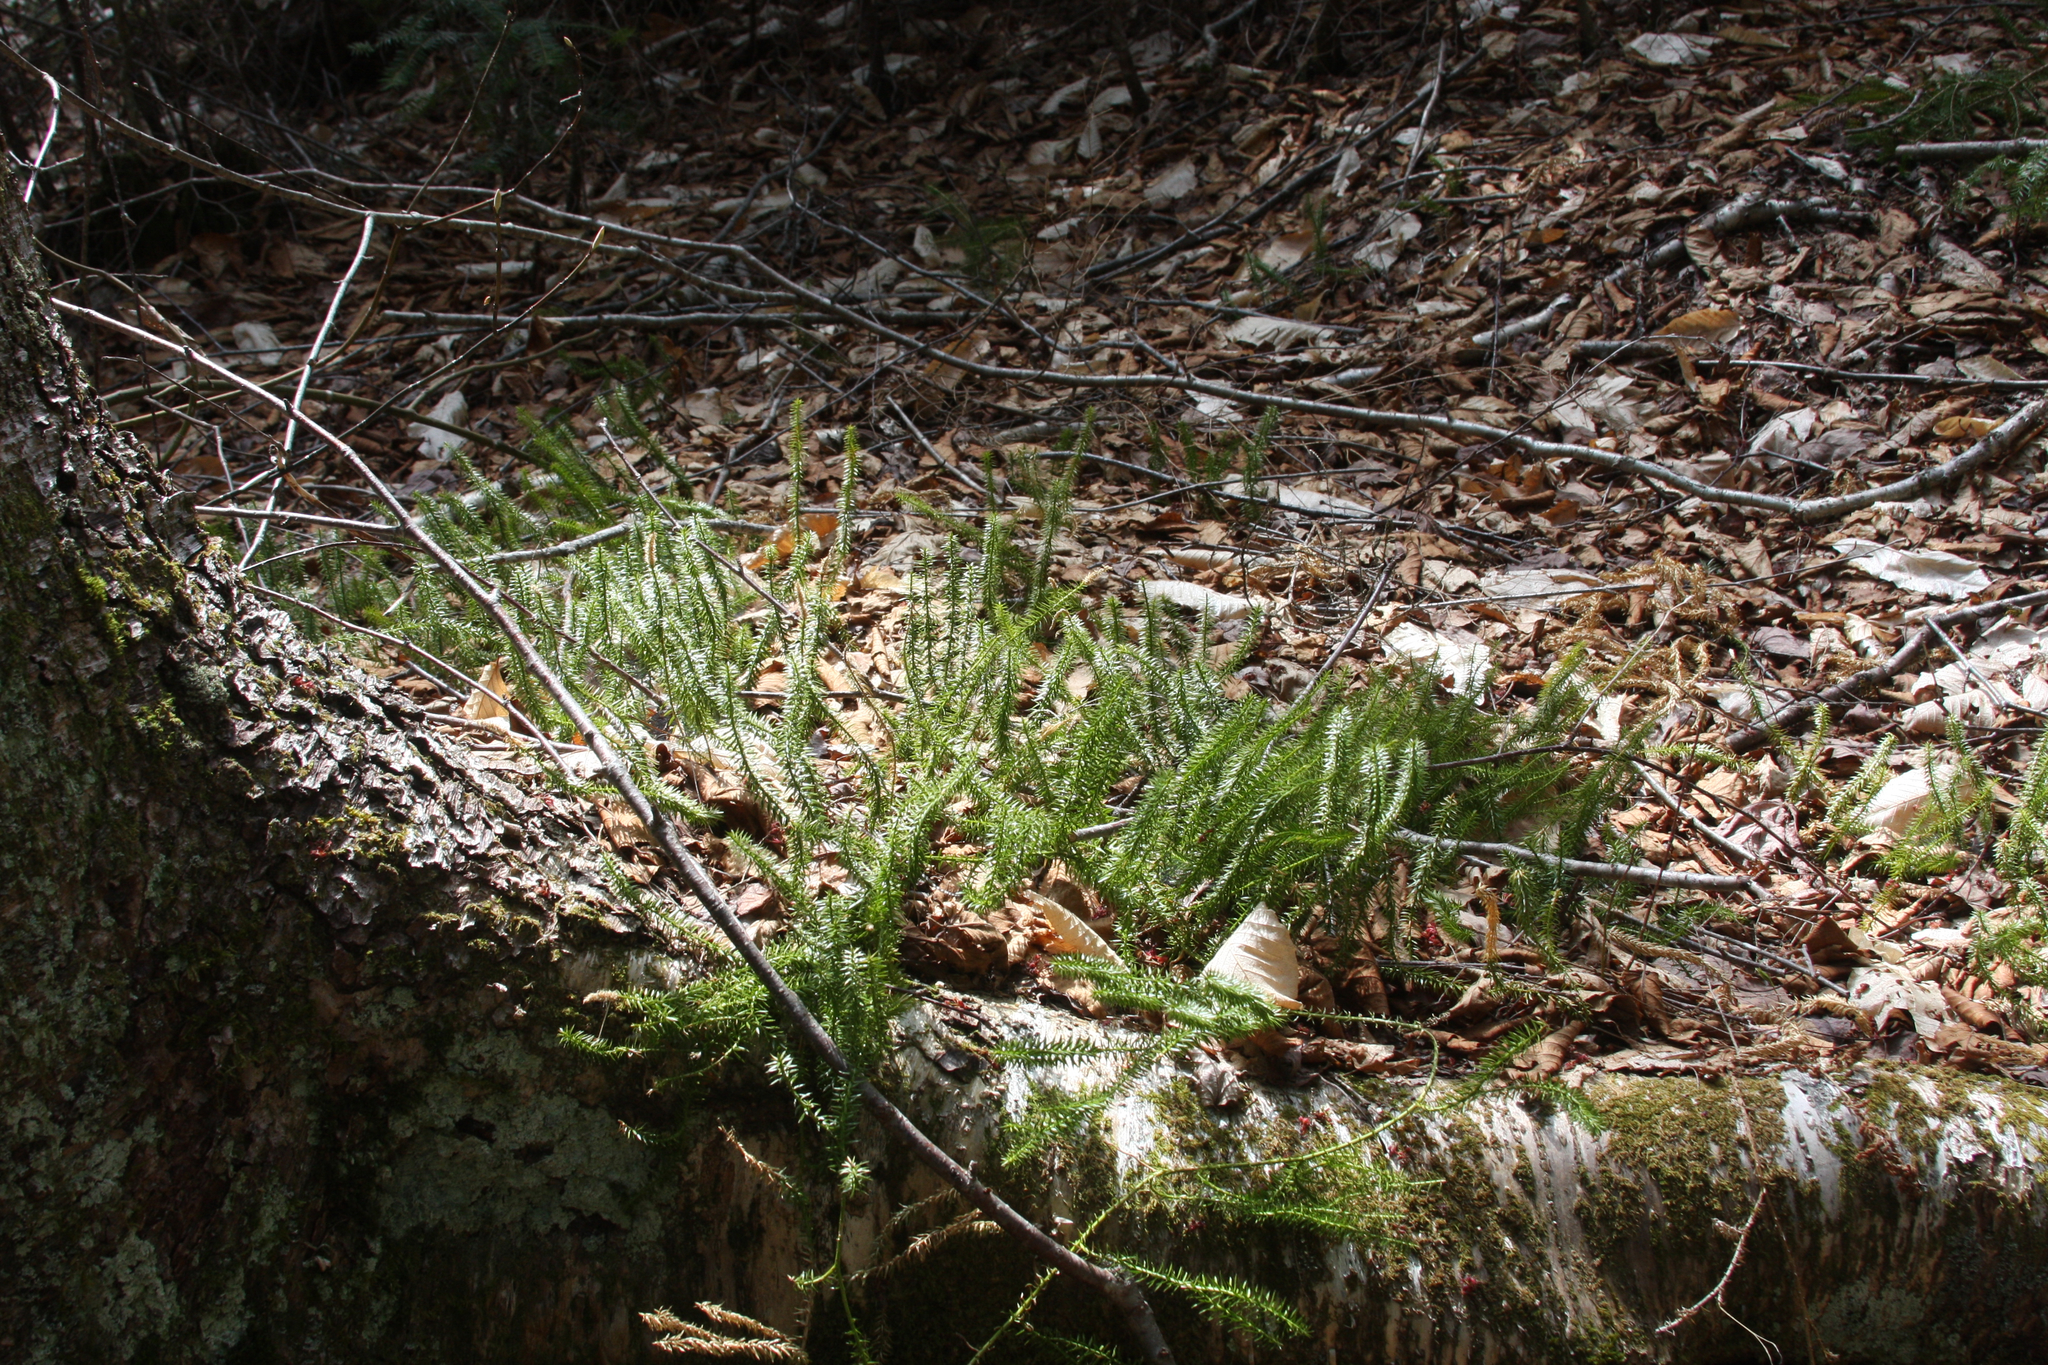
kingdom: Plantae
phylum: Tracheophyta
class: Lycopodiopsida
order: Lycopodiales
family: Lycopodiaceae
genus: Spinulum
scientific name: Spinulum annotinum
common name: Interrupted club-moss
